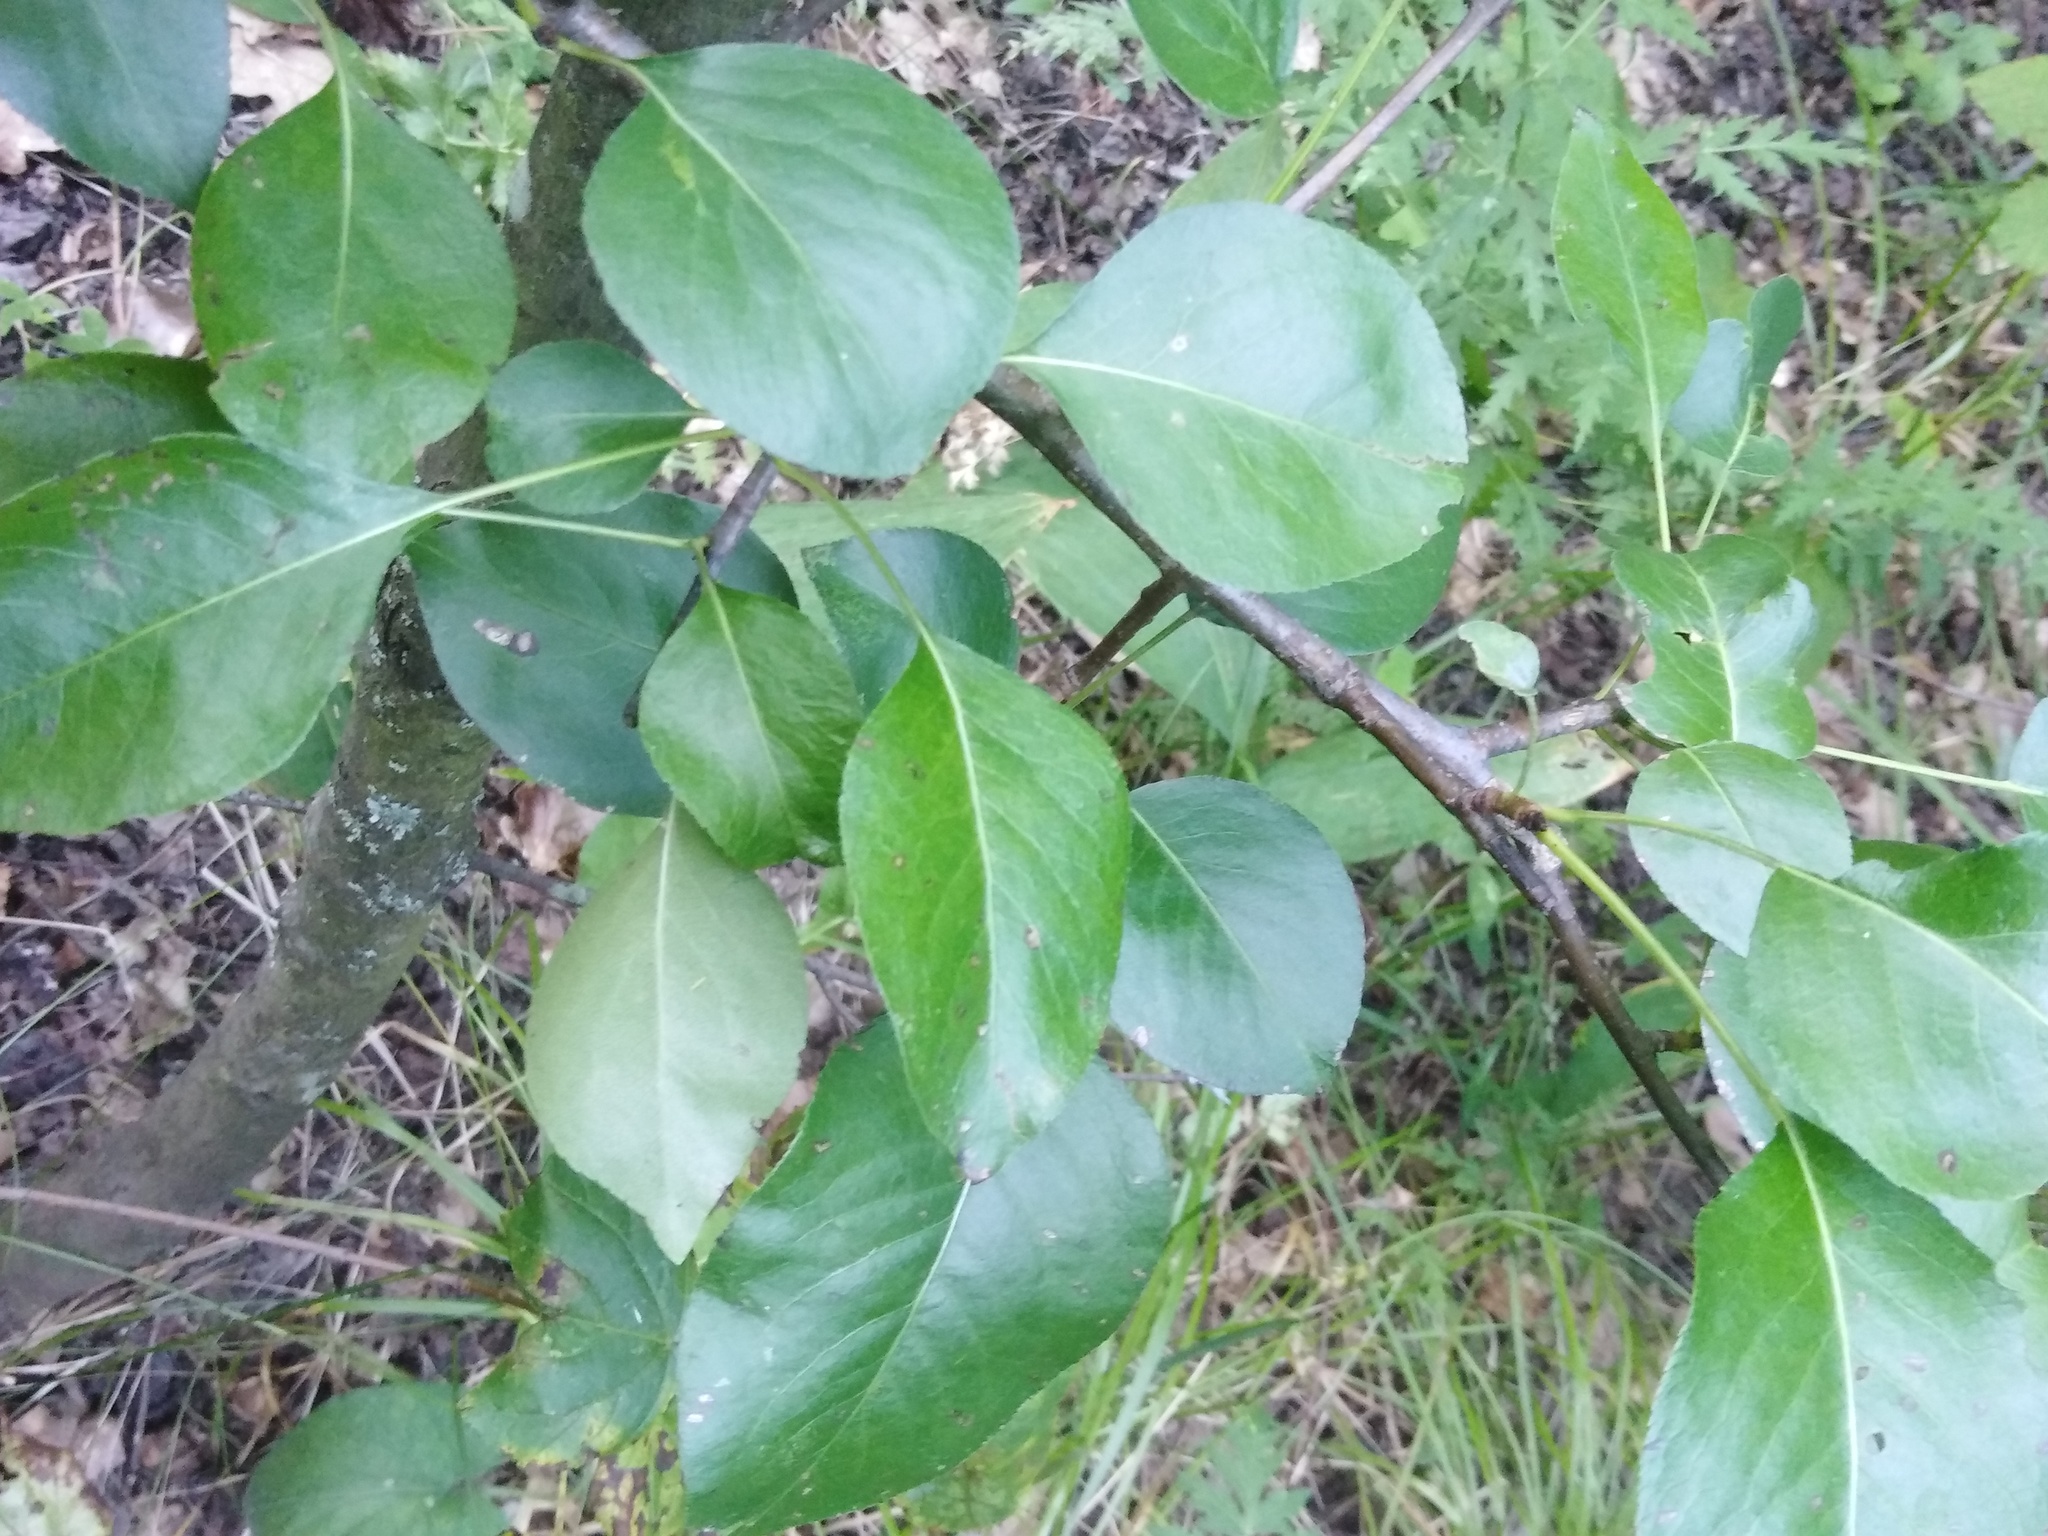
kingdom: Plantae
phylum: Tracheophyta
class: Magnoliopsida
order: Rosales
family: Rosaceae
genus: Pyrus
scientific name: Pyrus
